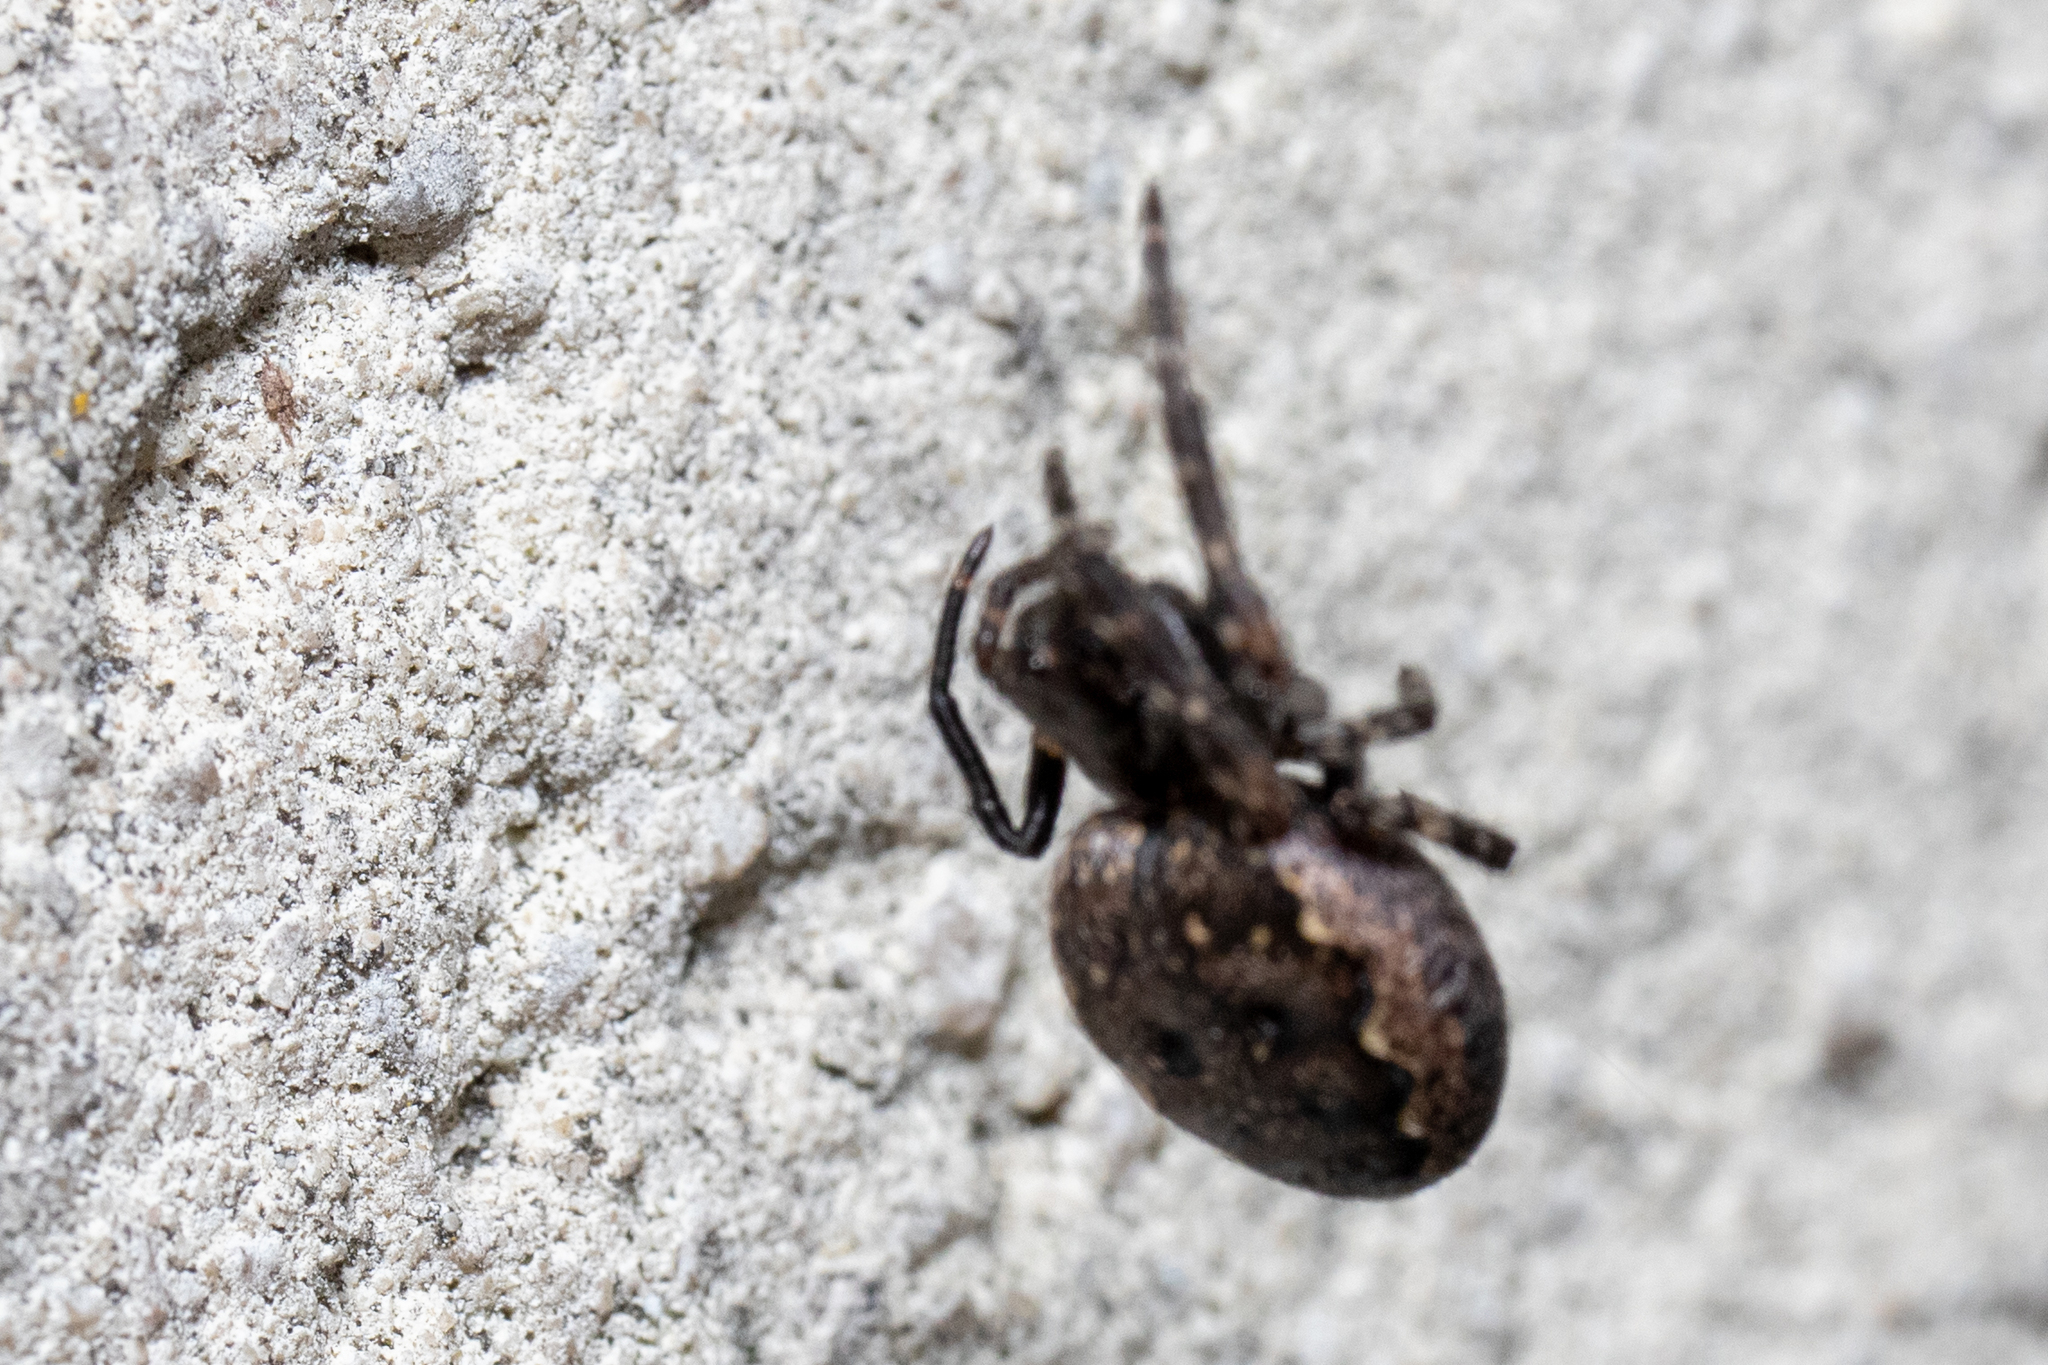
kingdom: Animalia
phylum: Arthropoda
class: Arachnida
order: Araneae
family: Araneidae
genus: Nuctenea
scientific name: Nuctenea umbratica
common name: Toad spider
